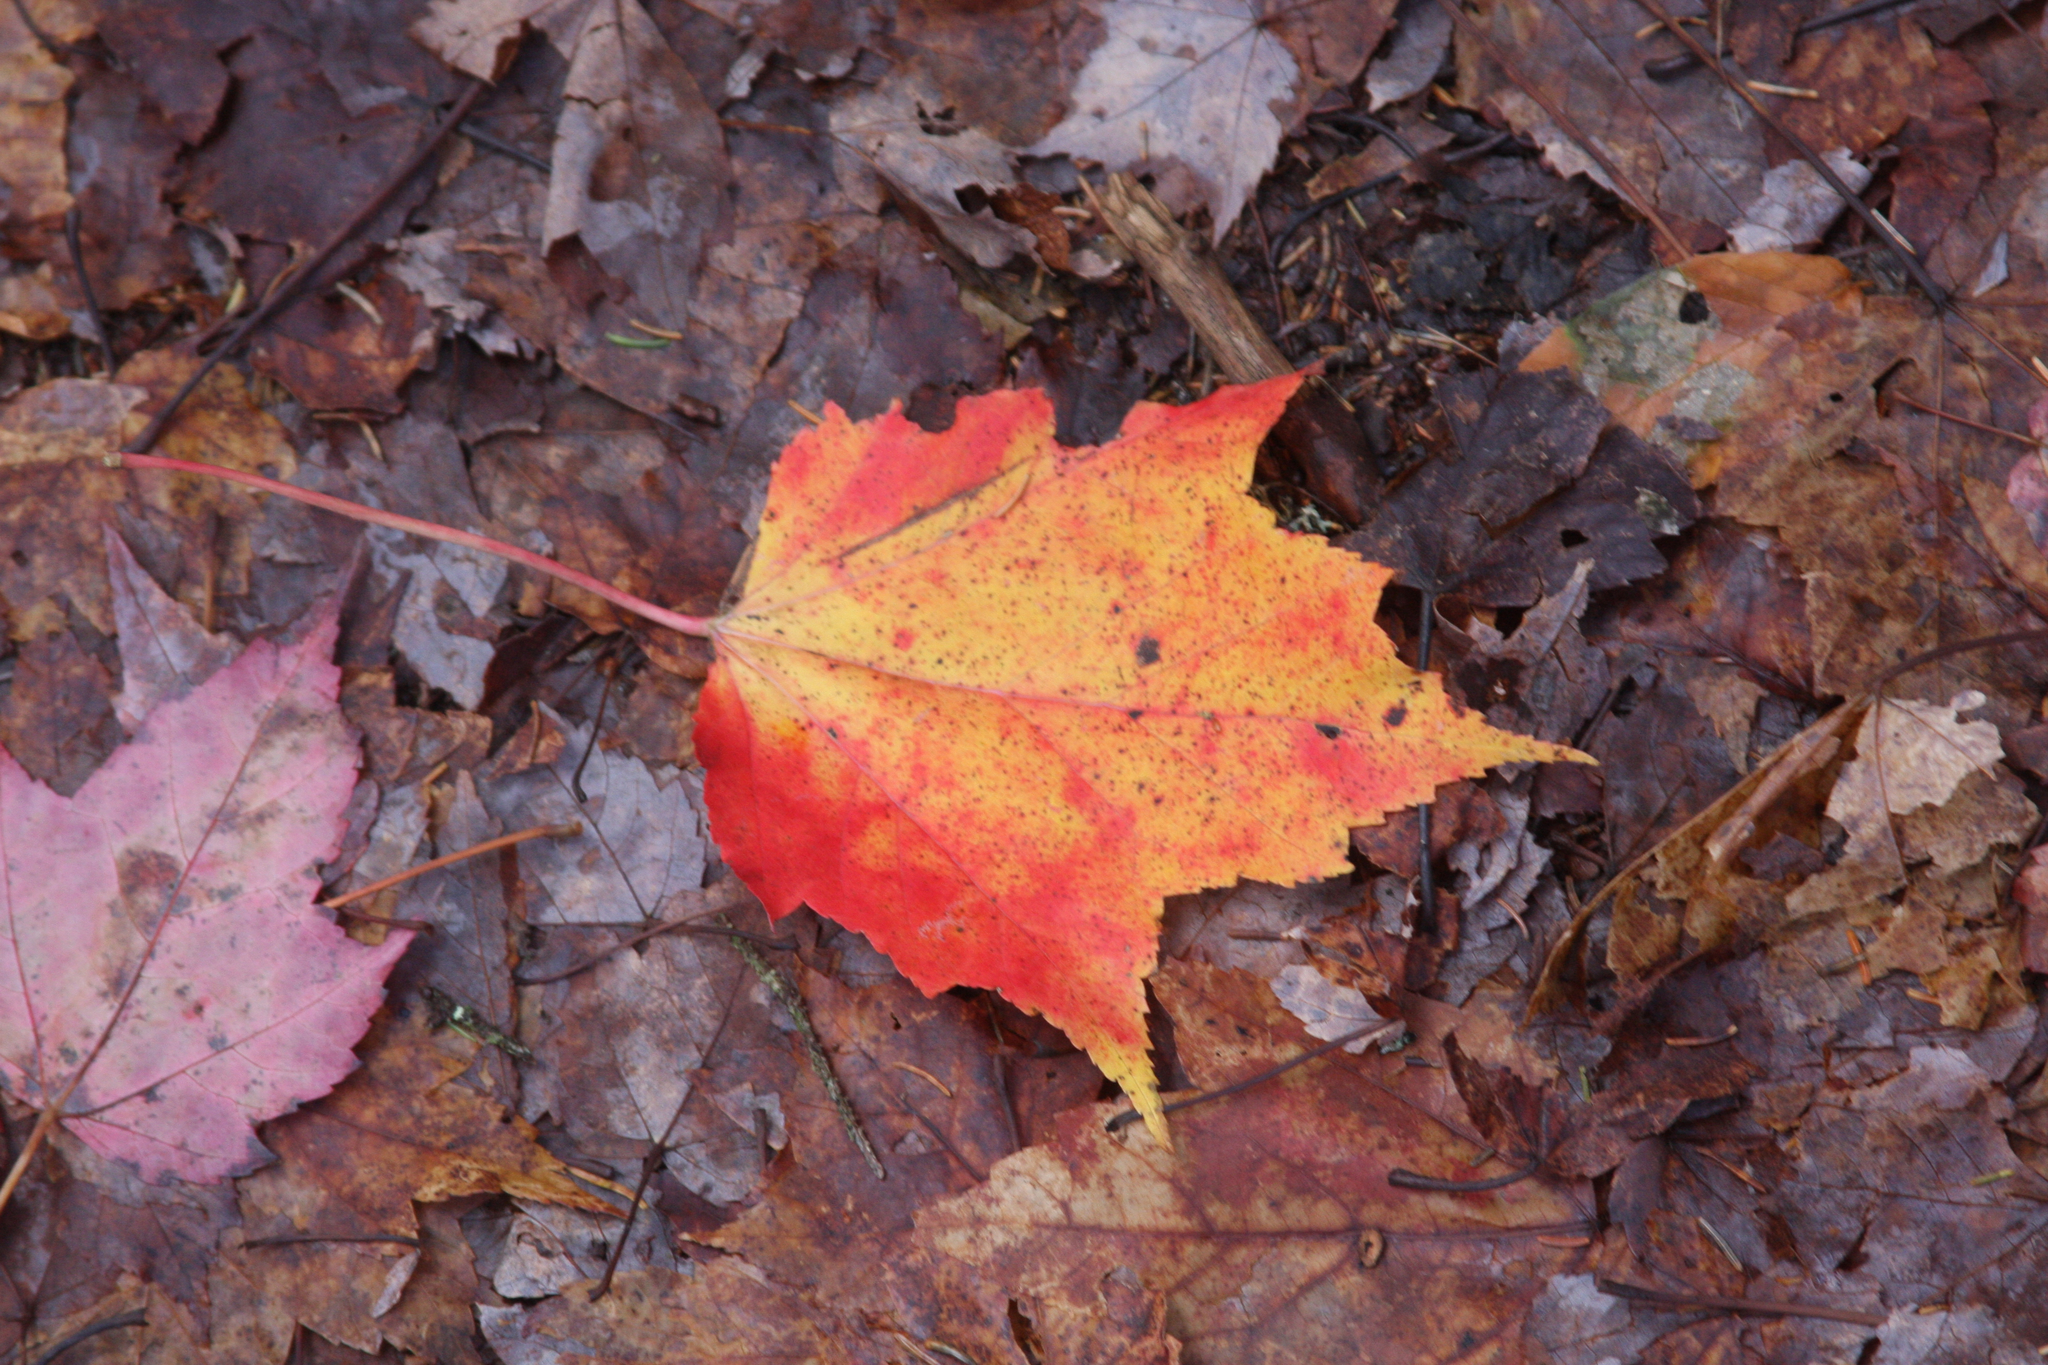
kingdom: Plantae
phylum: Tracheophyta
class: Magnoliopsida
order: Sapindales
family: Sapindaceae
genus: Acer
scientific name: Acer rubrum
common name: Red maple
